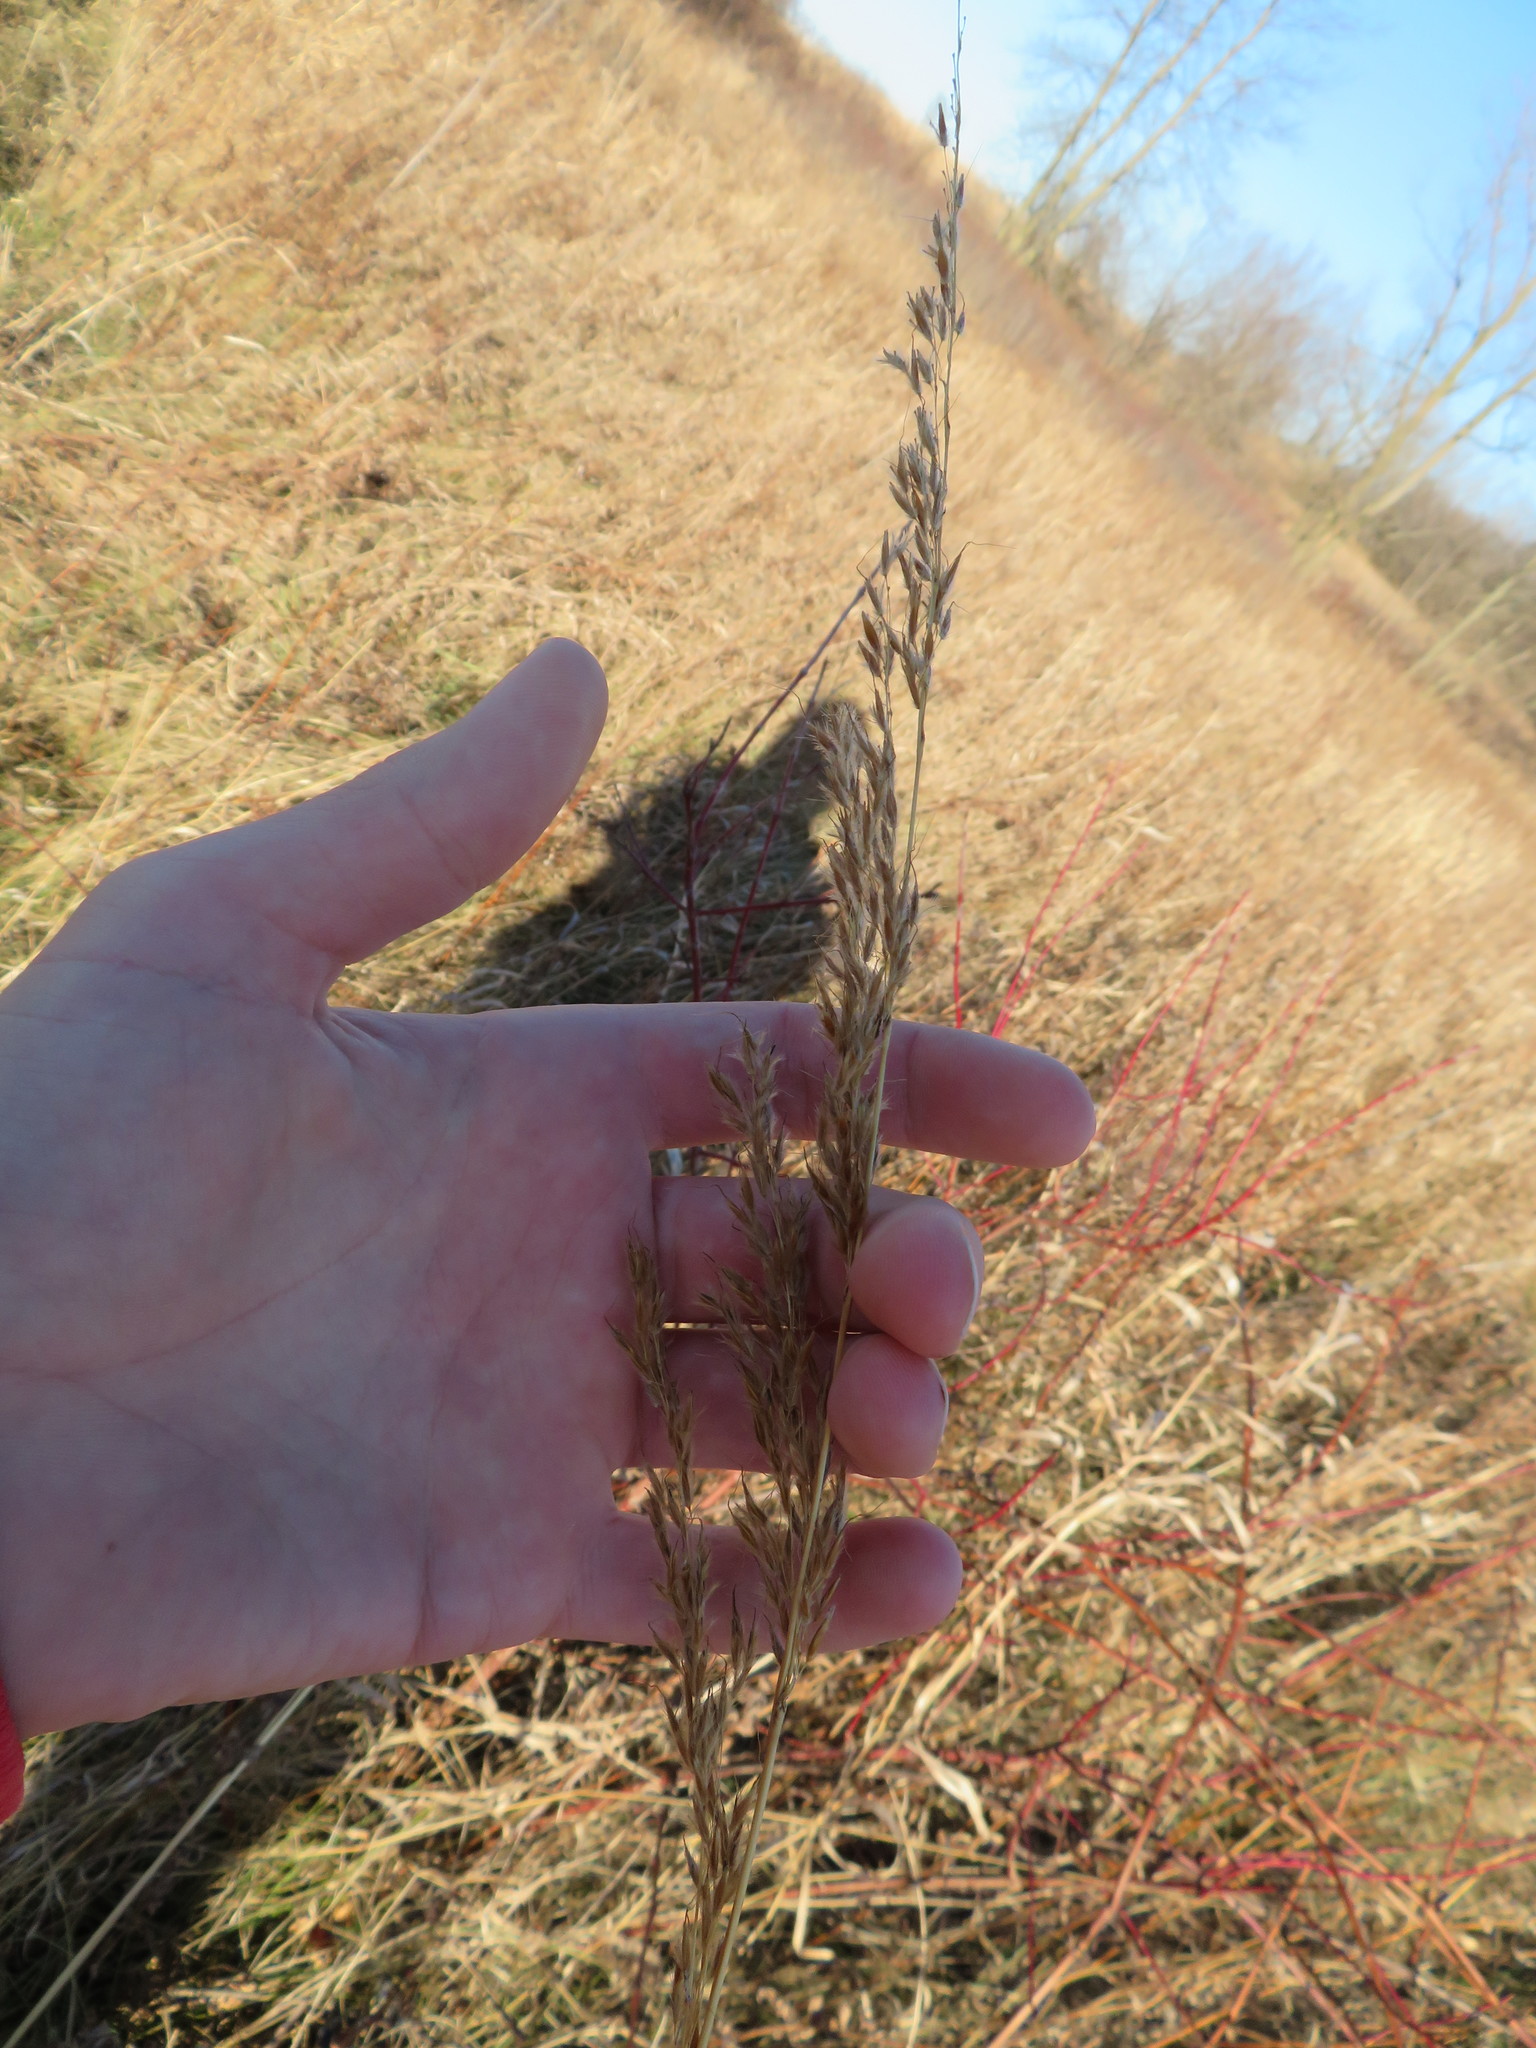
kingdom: Plantae
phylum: Tracheophyta
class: Liliopsida
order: Poales
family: Poaceae
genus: Sorghastrum
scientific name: Sorghastrum nutans
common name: Indian grass
